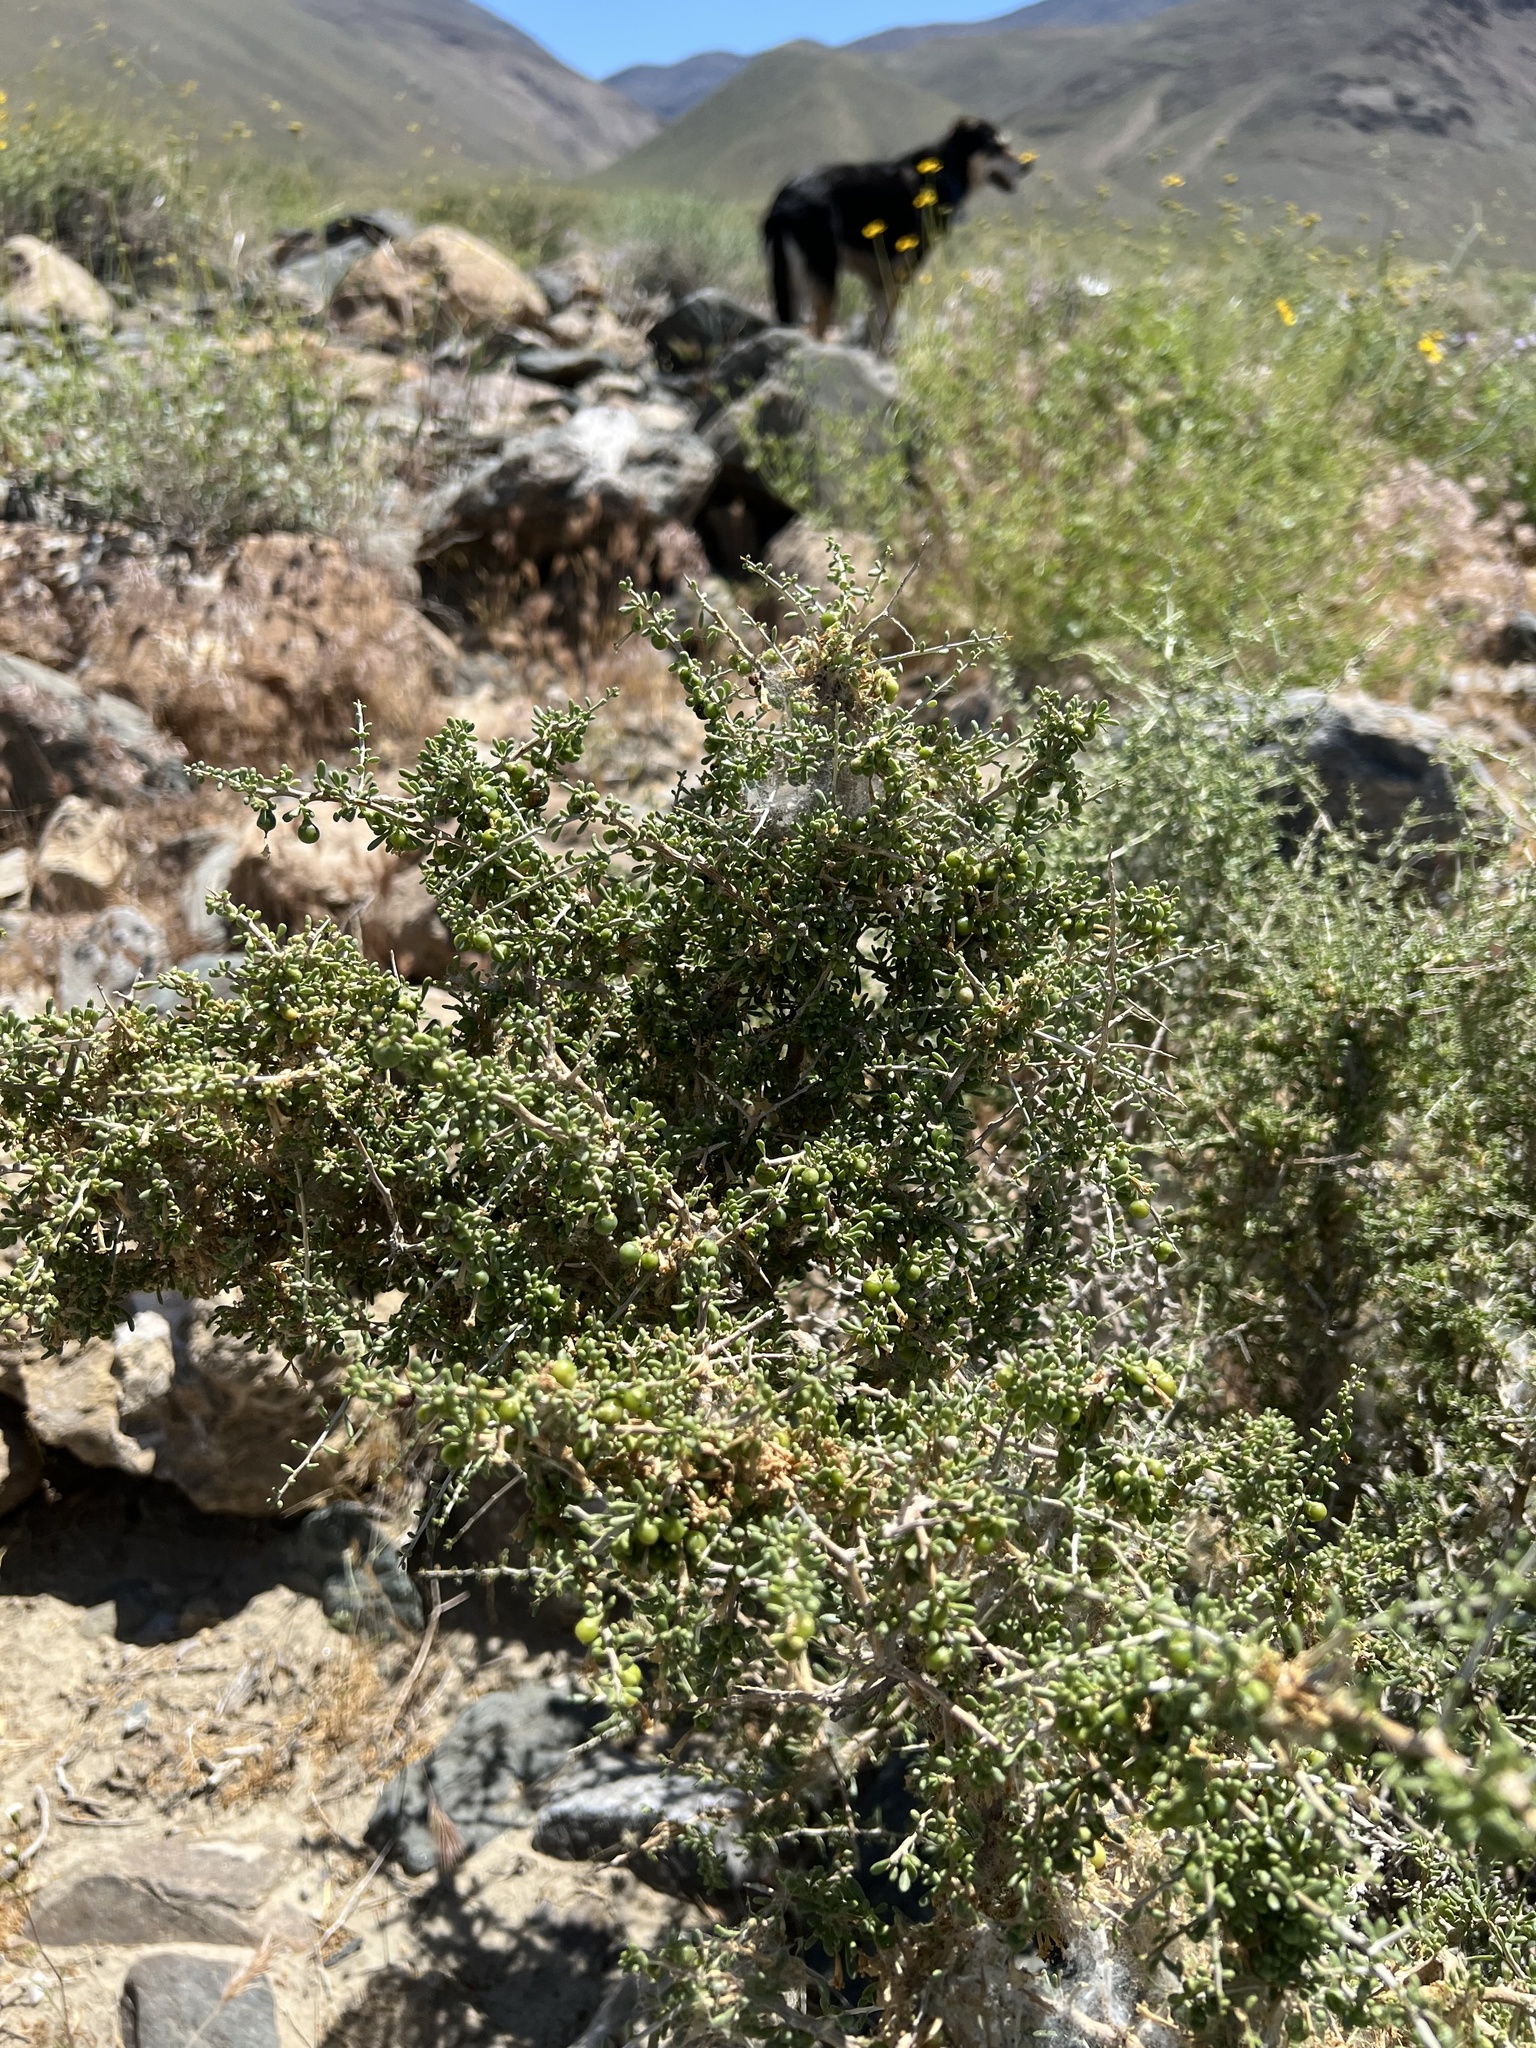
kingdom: Plantae
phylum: Tracheophyta
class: Magnoliopsida
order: Solanales
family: Solanaceae
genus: Lycium
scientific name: Lycium andersonii
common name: Water-jacket
